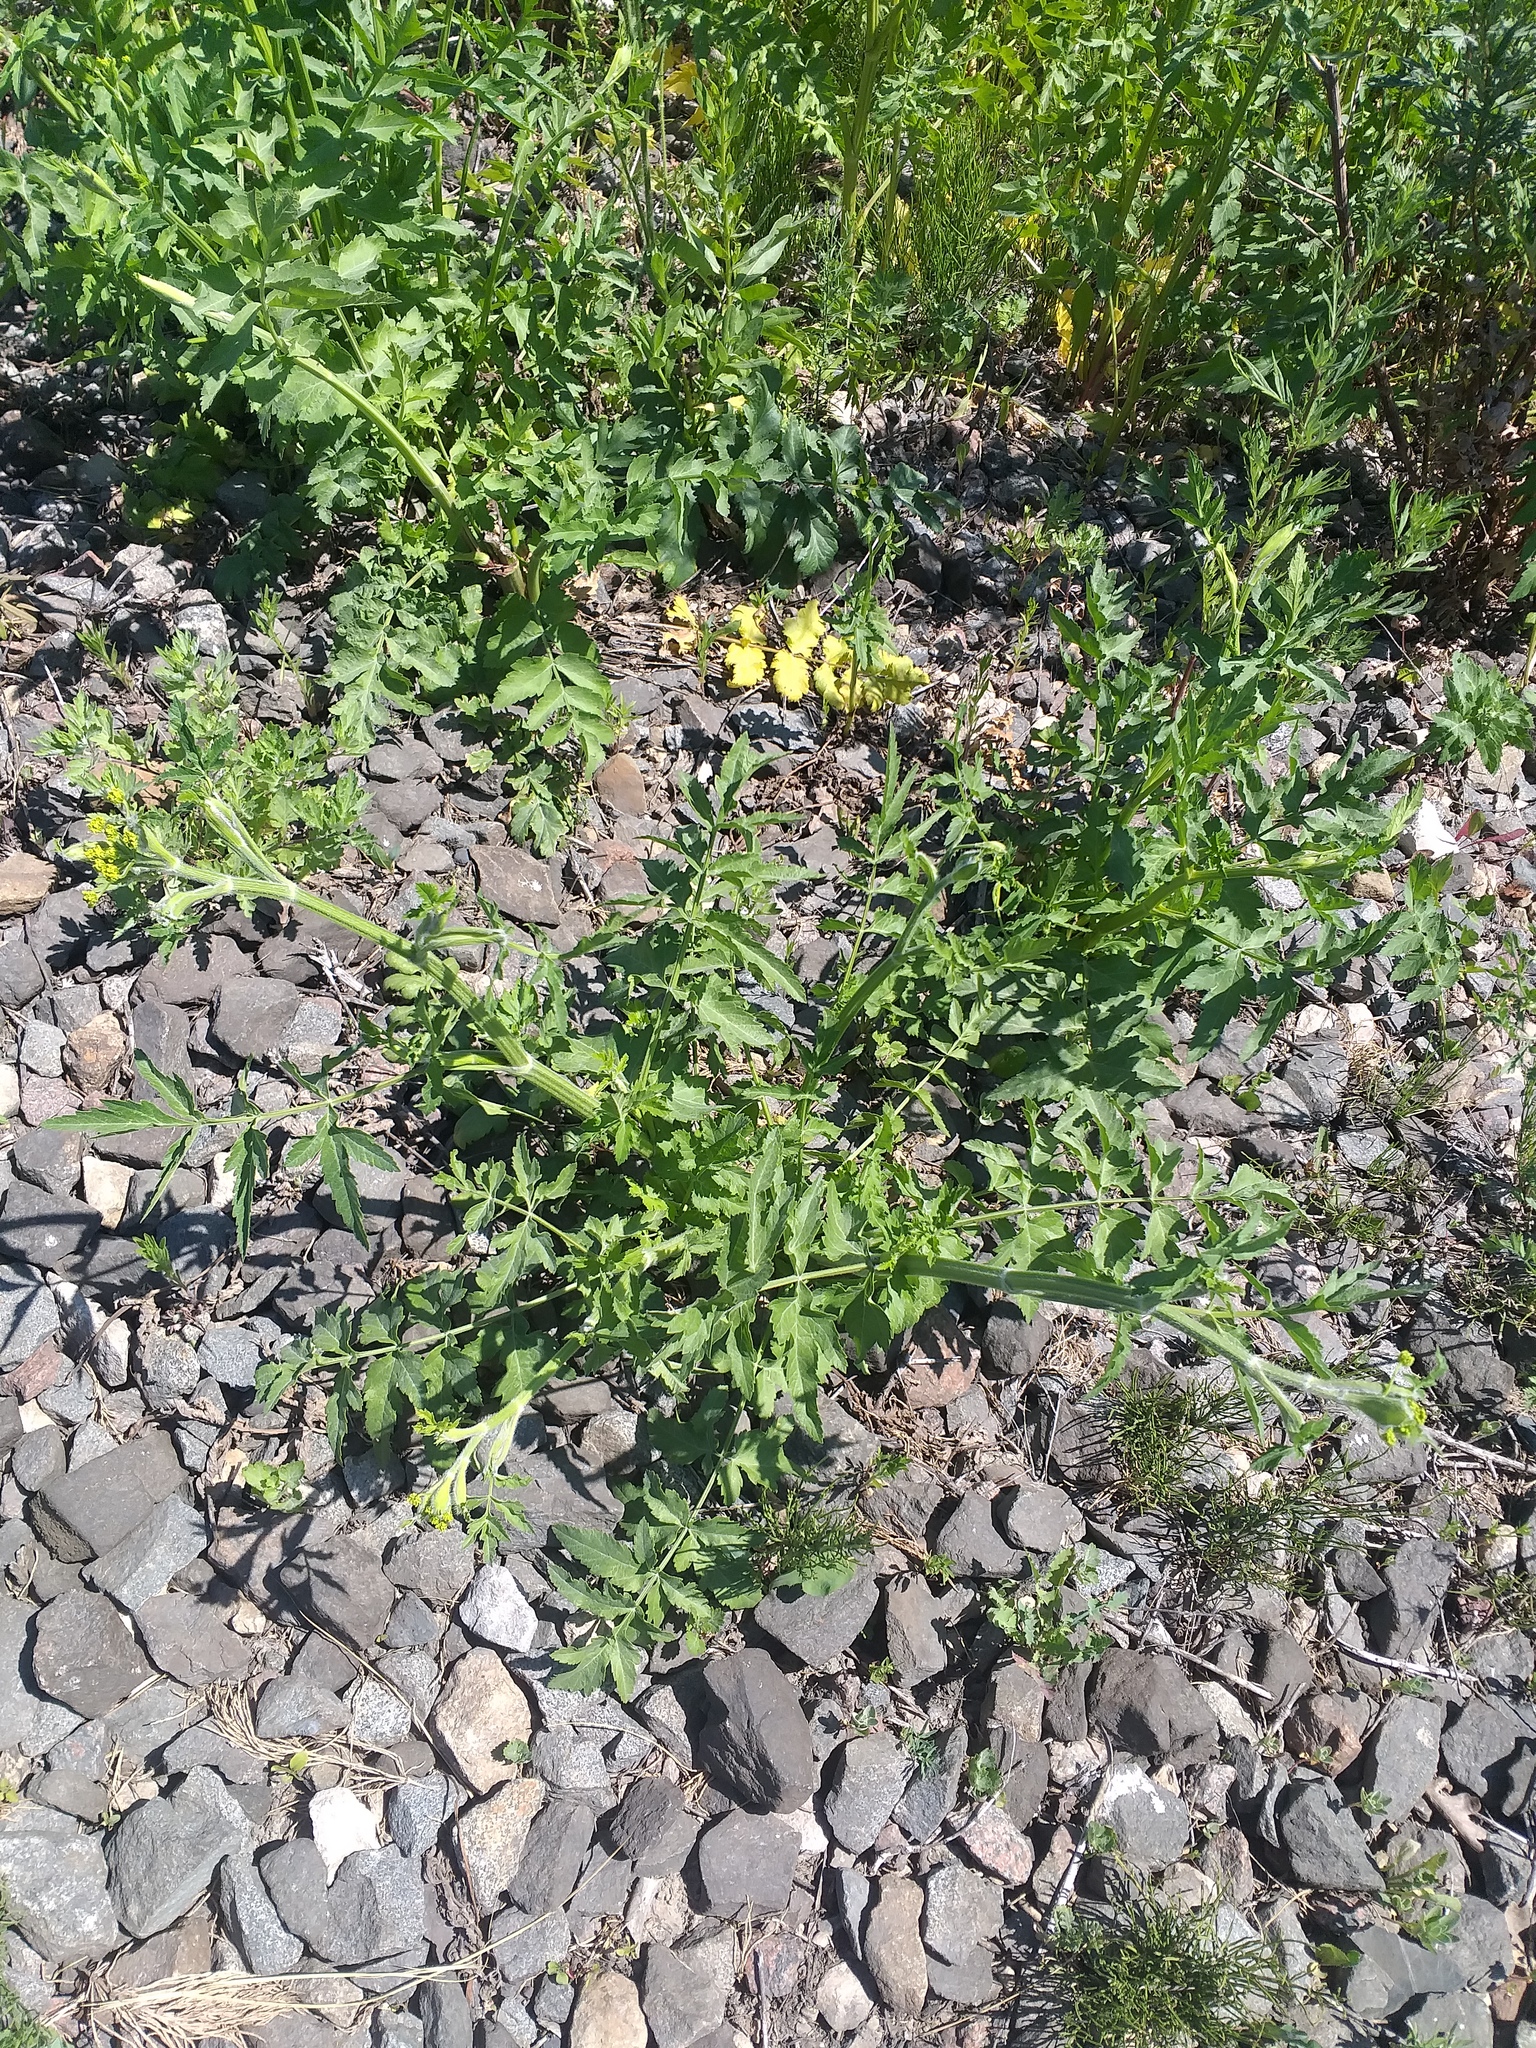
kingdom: Plantae
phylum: Tracheophyta
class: Magnoliopsida
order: Apiales
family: Apiaceae
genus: Pastinaca
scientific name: Pastinaca sativa
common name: Wild parsnip
